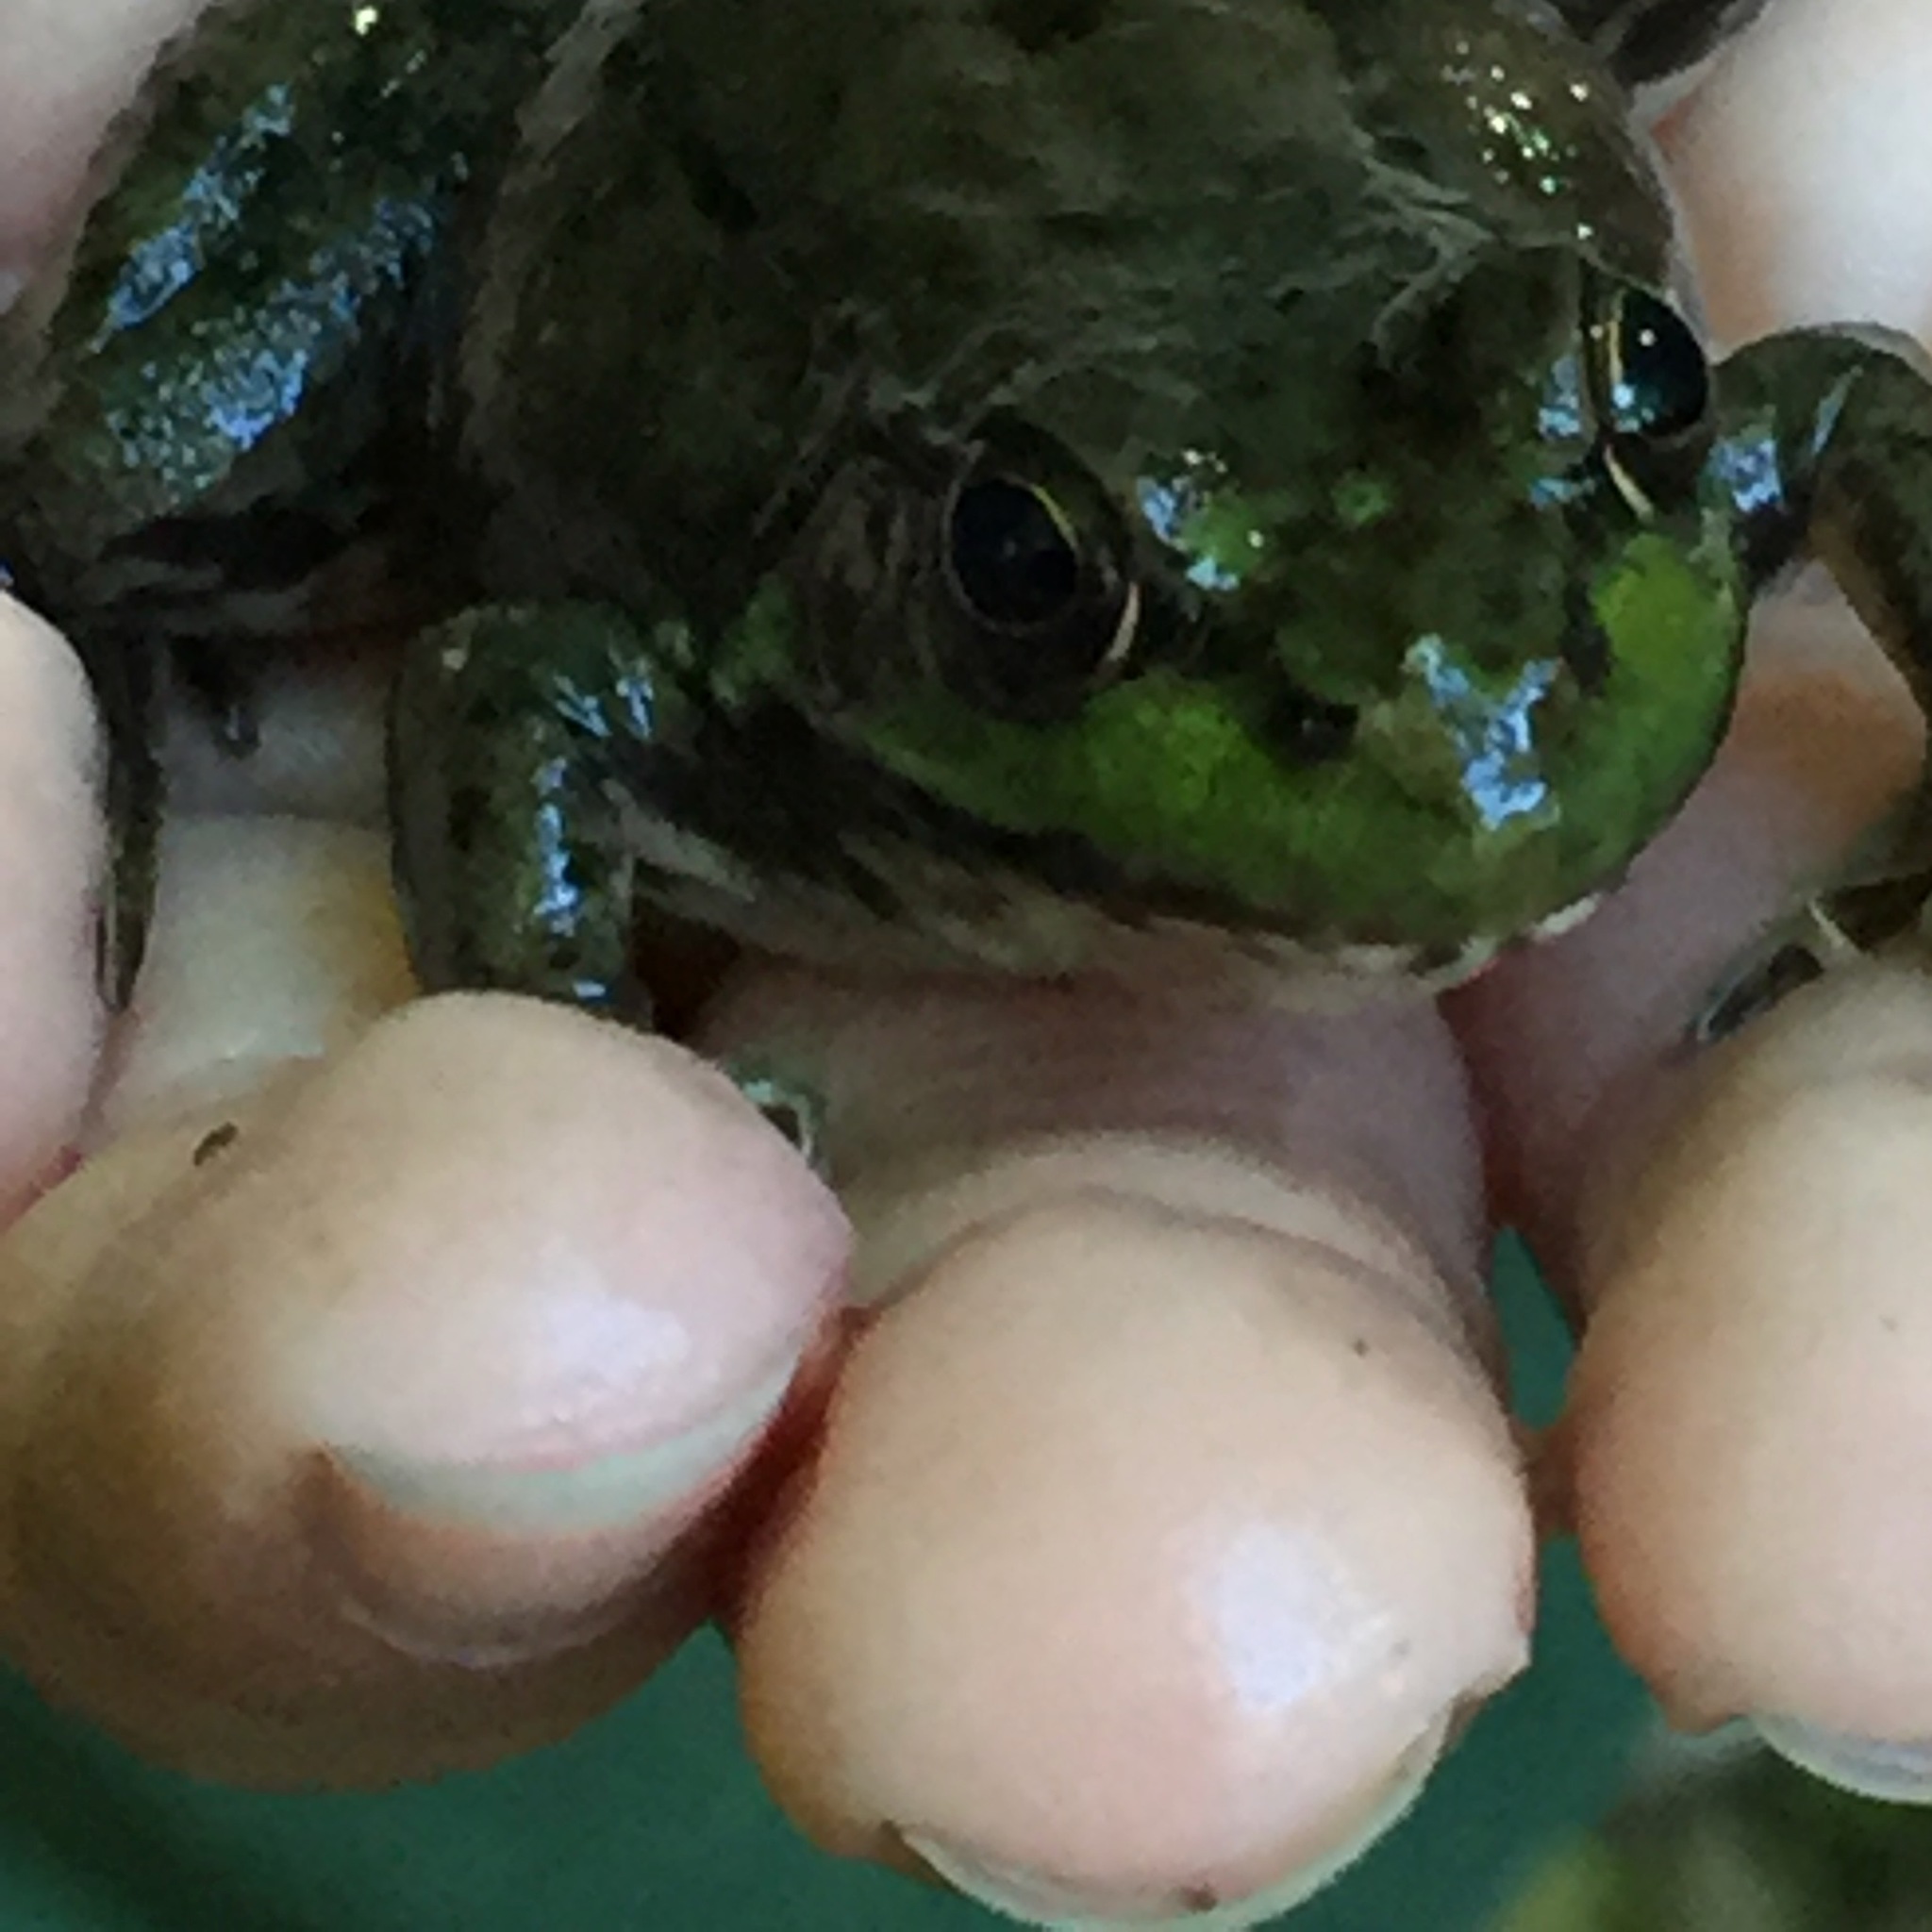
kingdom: Animalia
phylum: Chordata
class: Amphibia
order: Anura
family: Ranidae
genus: Lithobates
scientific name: Lithobates clamitans
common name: Green frog
